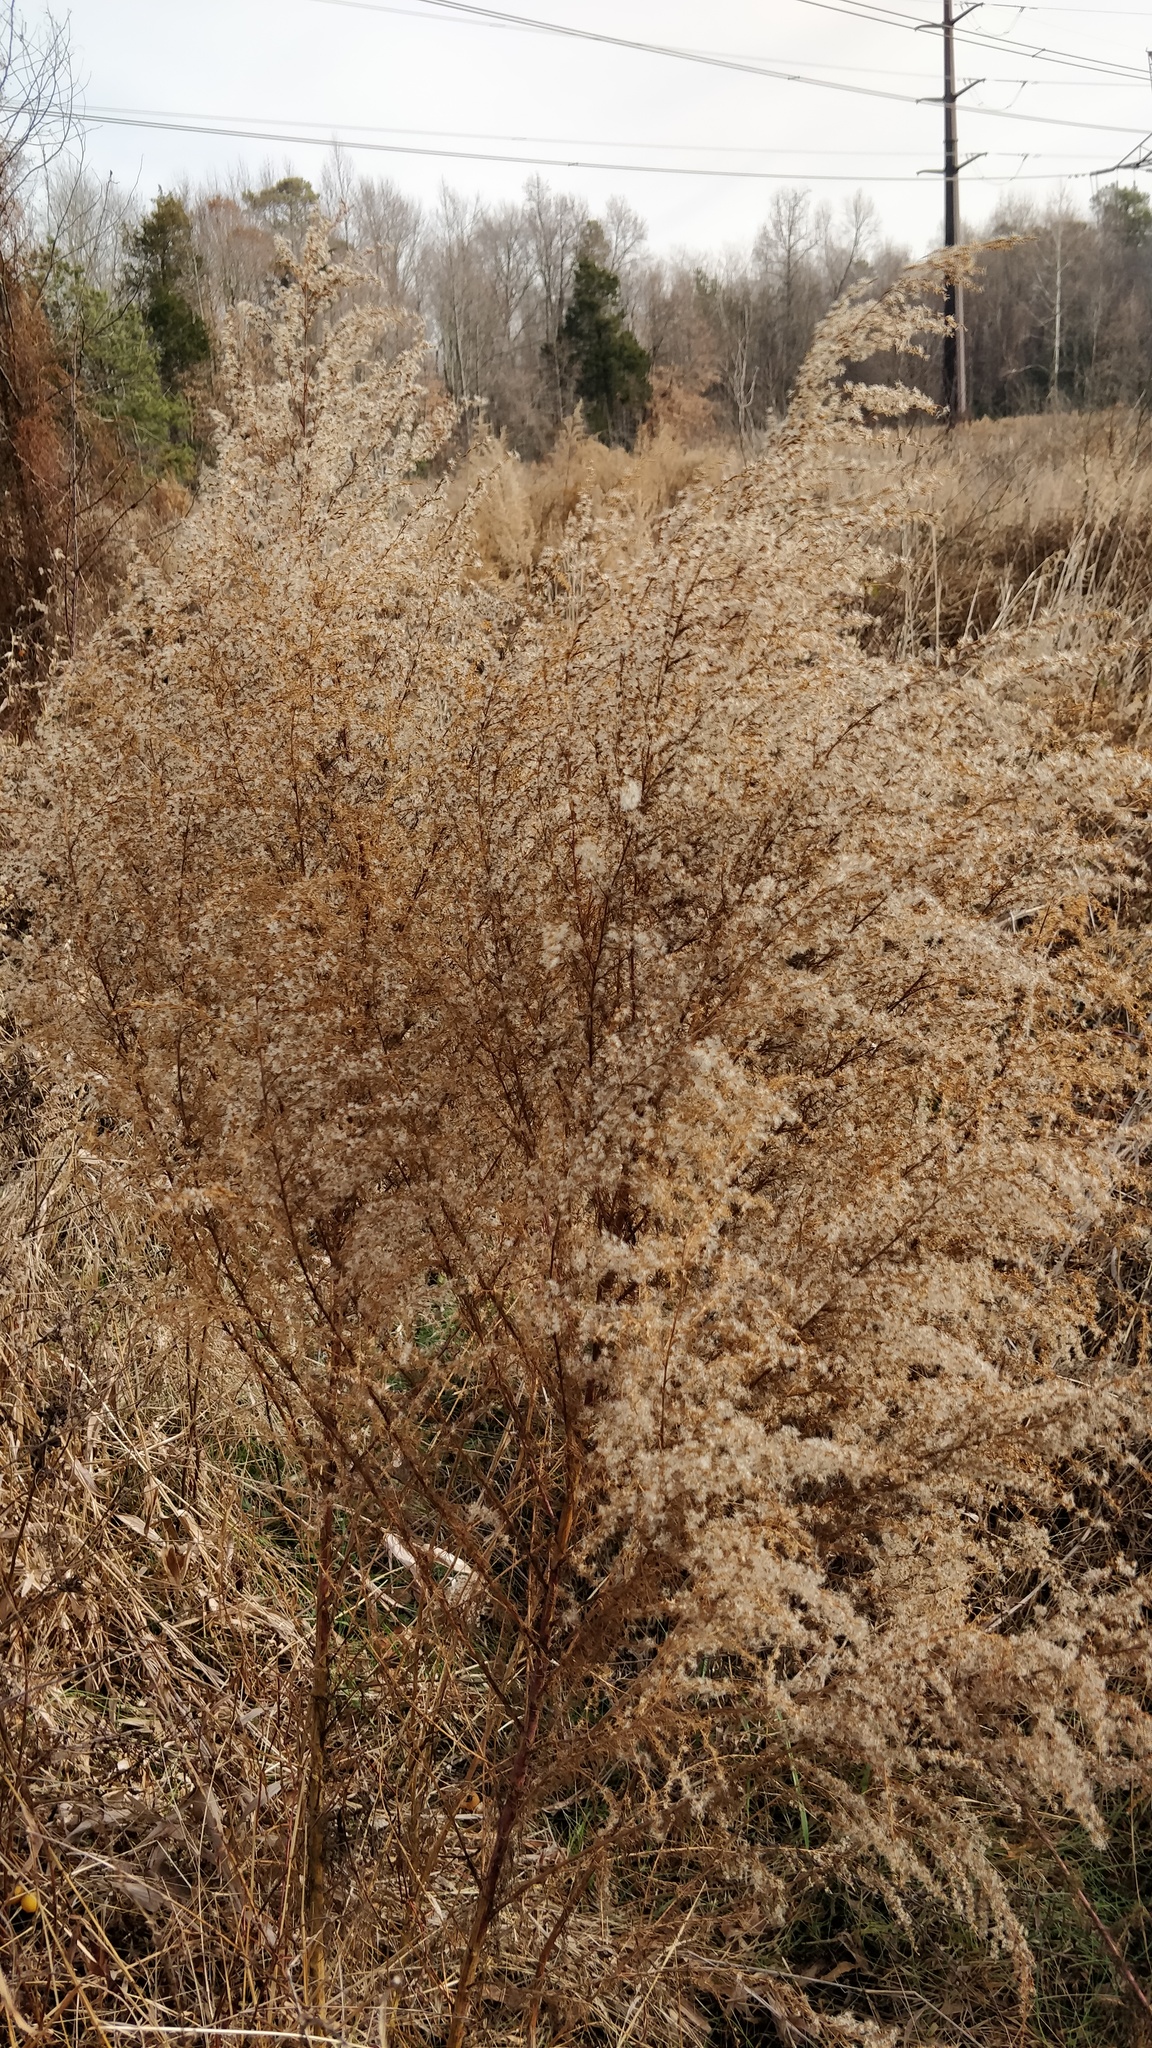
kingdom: Plantae
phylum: Tracheophyta
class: Magnoliopsida
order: Asterales
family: Asteraceae
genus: Eupatorium
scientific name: Eupatorium capillifolium
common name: Dog-fennel
